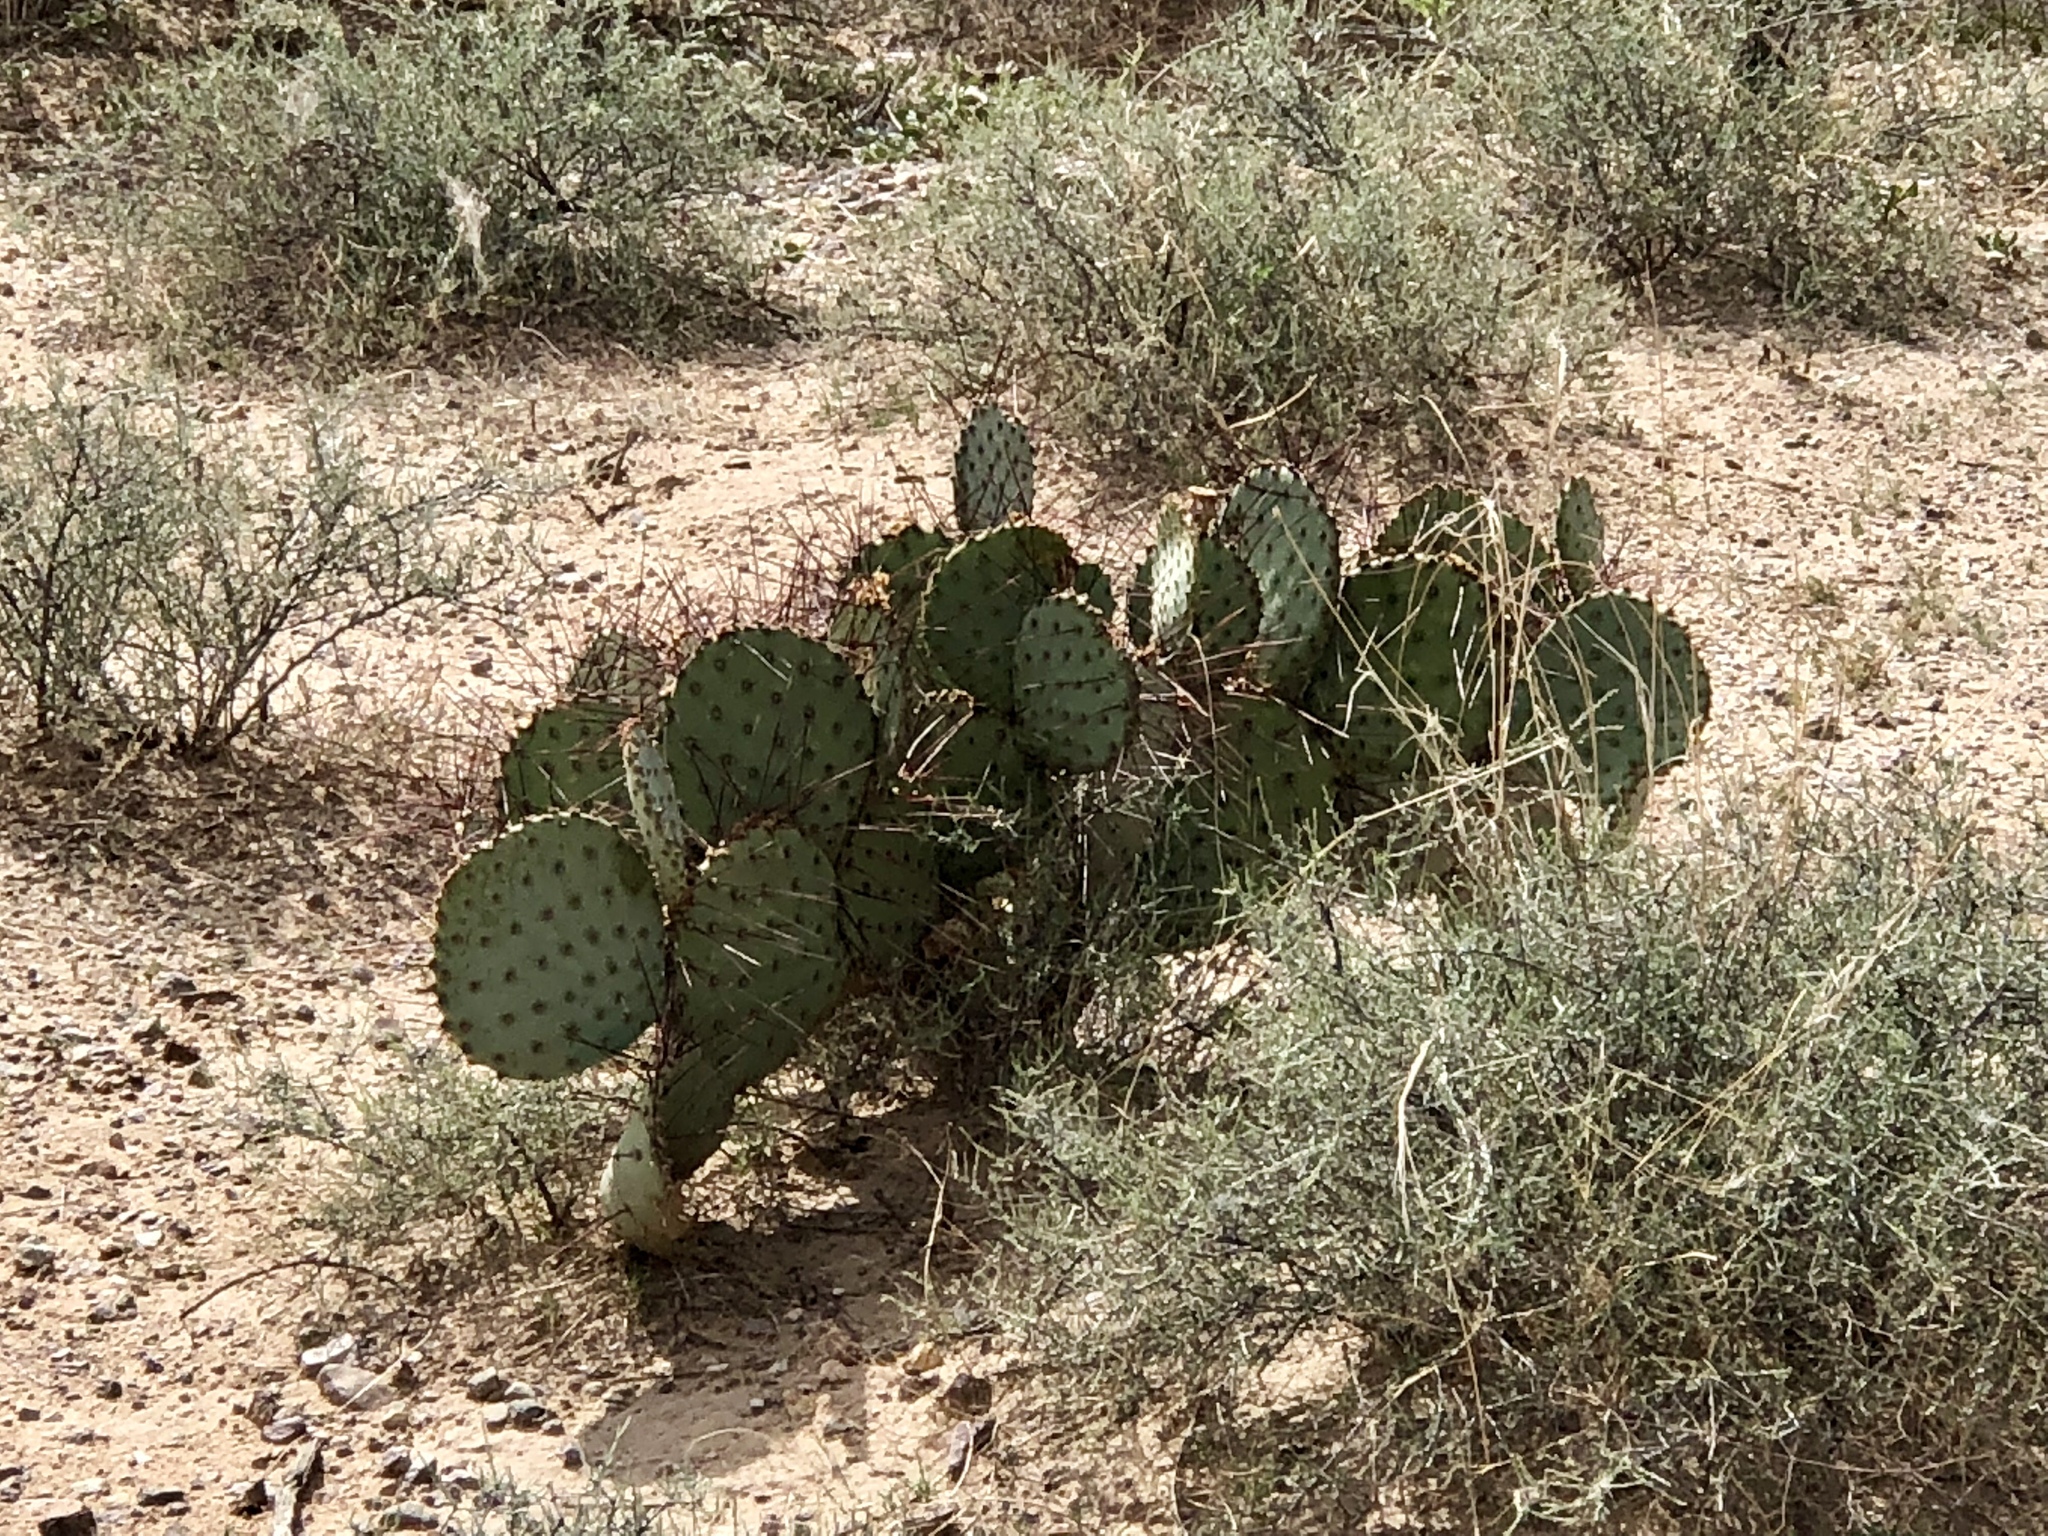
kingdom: Plantae
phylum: Tracheophyta
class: Magnoliopsida
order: Caryophyllales
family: Cactaceae
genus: Opuntia
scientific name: Opuntia macrocentra
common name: Purple prickly-pear
